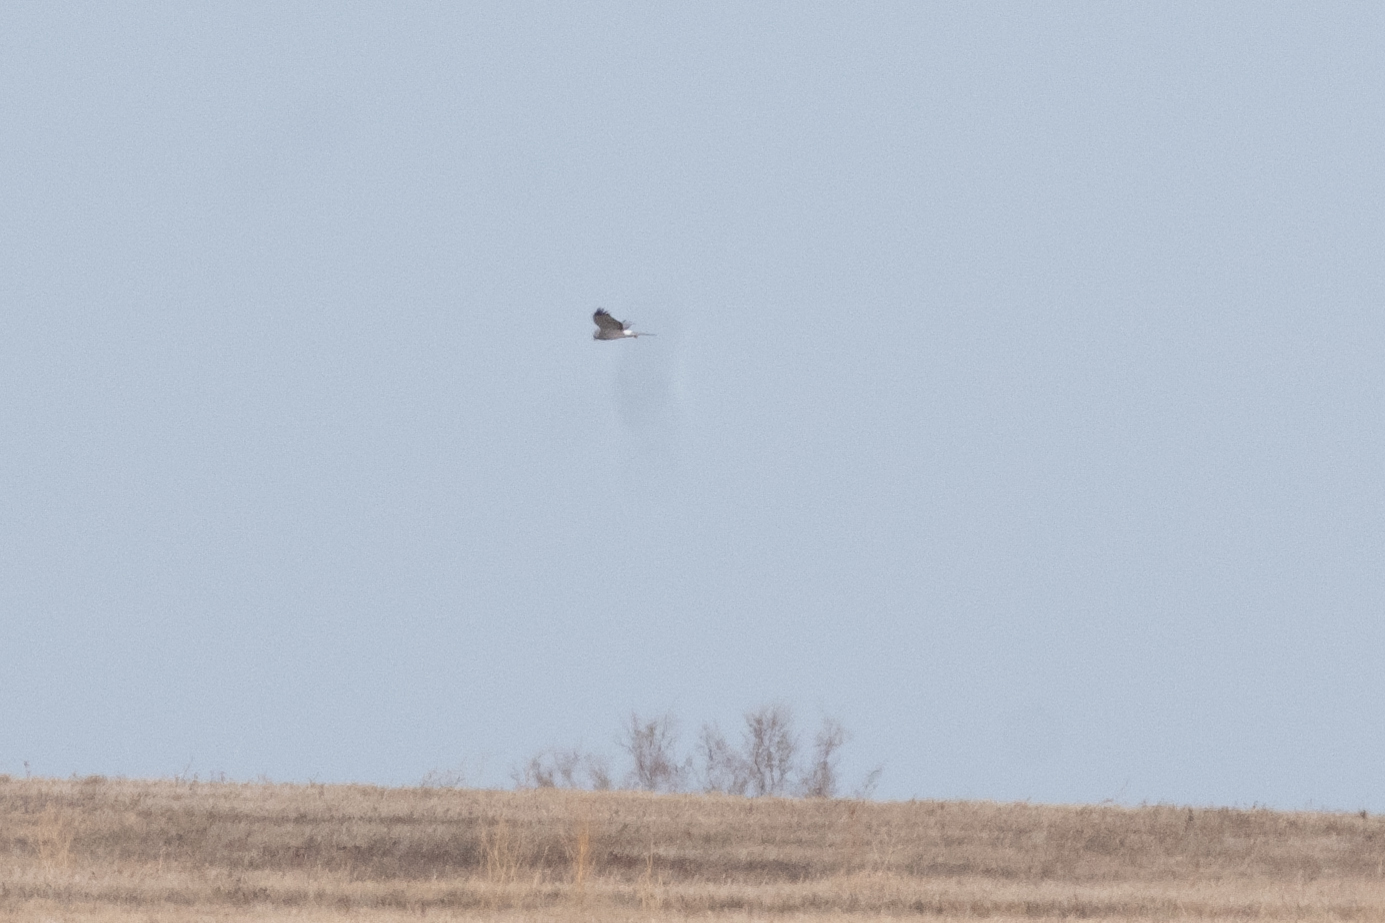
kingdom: Animalia
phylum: Chordata
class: Aves
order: Accipitriformes
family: Accipitridae
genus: Circus
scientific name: Circus cyaneus
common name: Hen harrier
